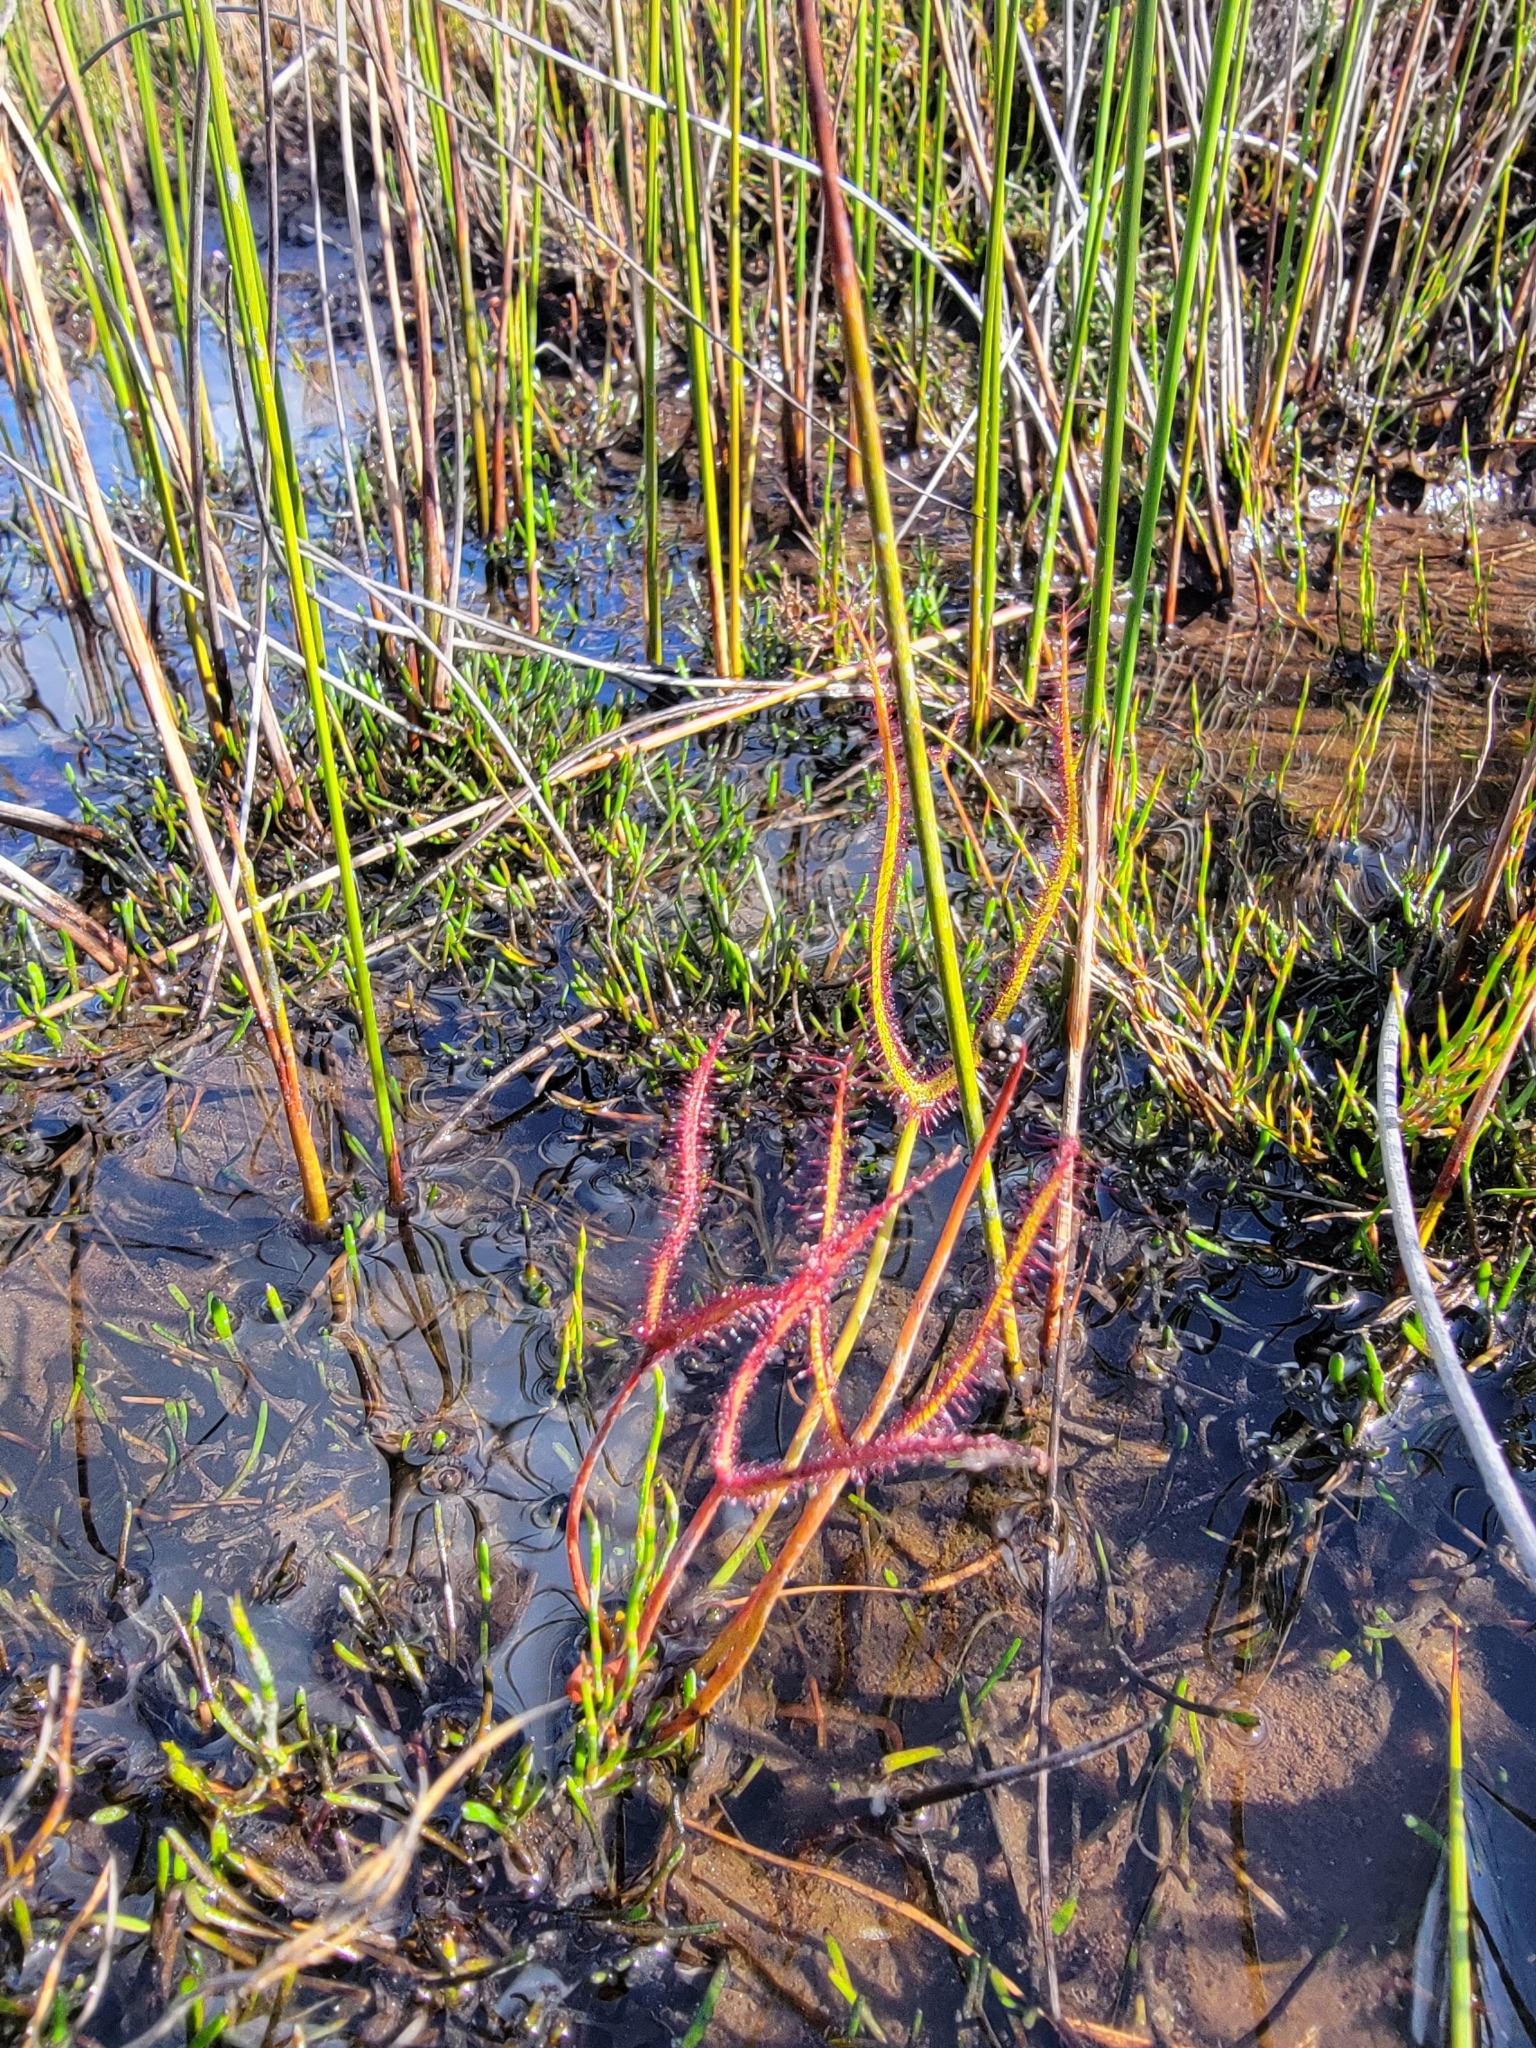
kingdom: Plantae
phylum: Tracheophyta
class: Magnoliopsida
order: Caryophyllales
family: Droseraceae
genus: Drosera
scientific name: Drosera binata
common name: Forked sundew
